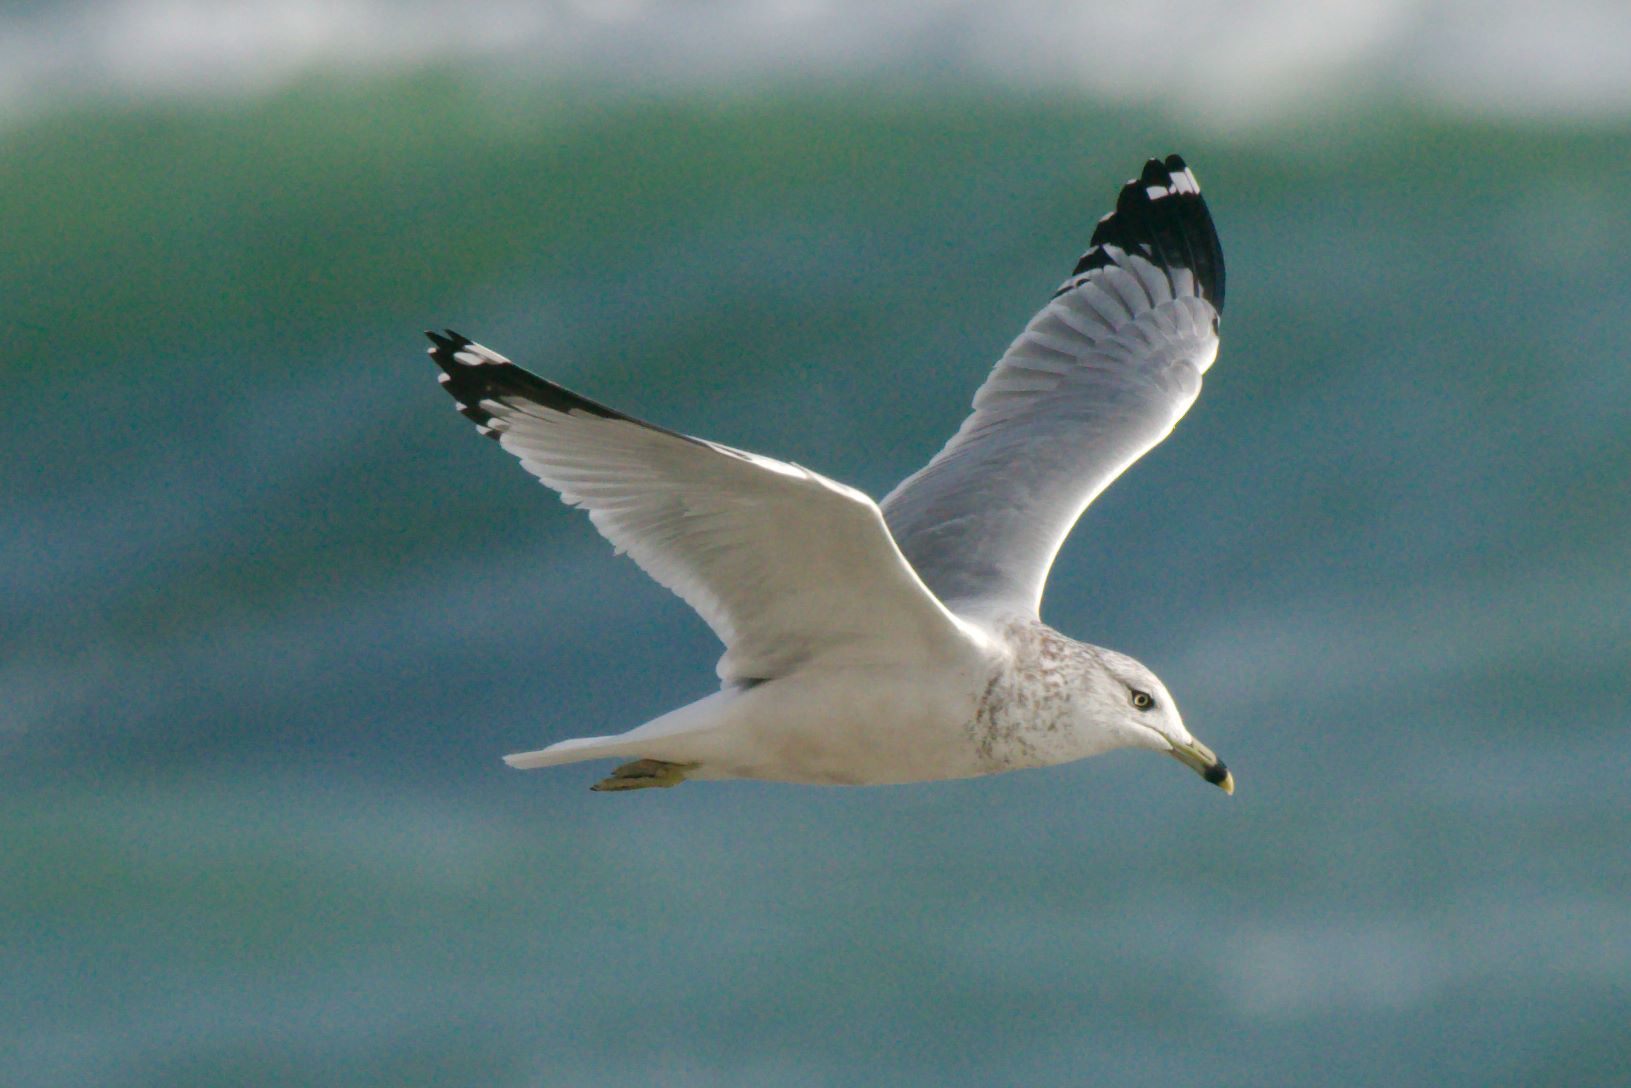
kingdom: Animalia
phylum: Chordata
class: Aves
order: Charadriiformes
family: Laridae
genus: Larus
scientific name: Larus delawarensis
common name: Ring-billed gull
